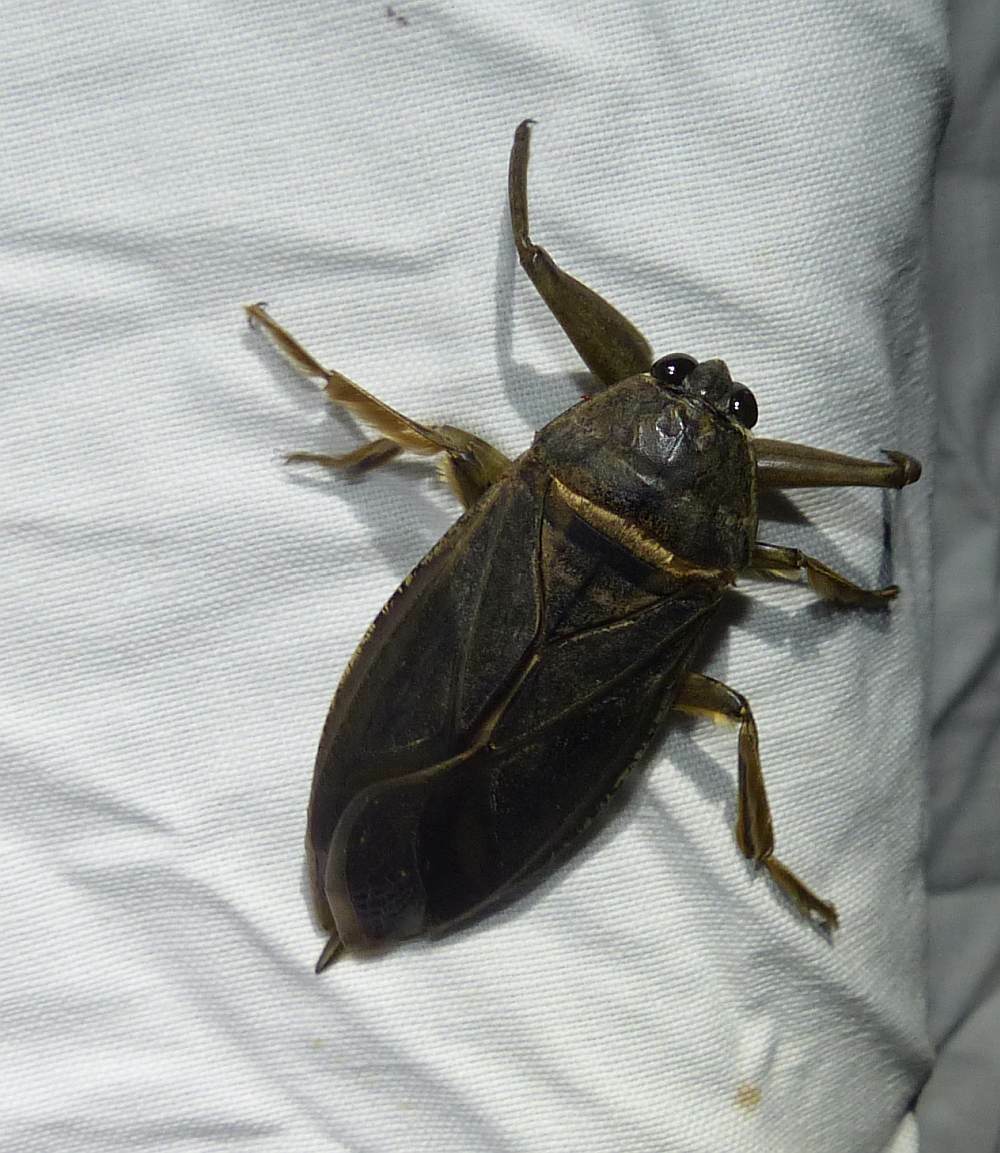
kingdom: Animalia
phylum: Arthropoda
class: Insecta
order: Hemiptera
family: Belostomatidae
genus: Lethocerus
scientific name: Lethocerus americanus
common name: Giant water bug
